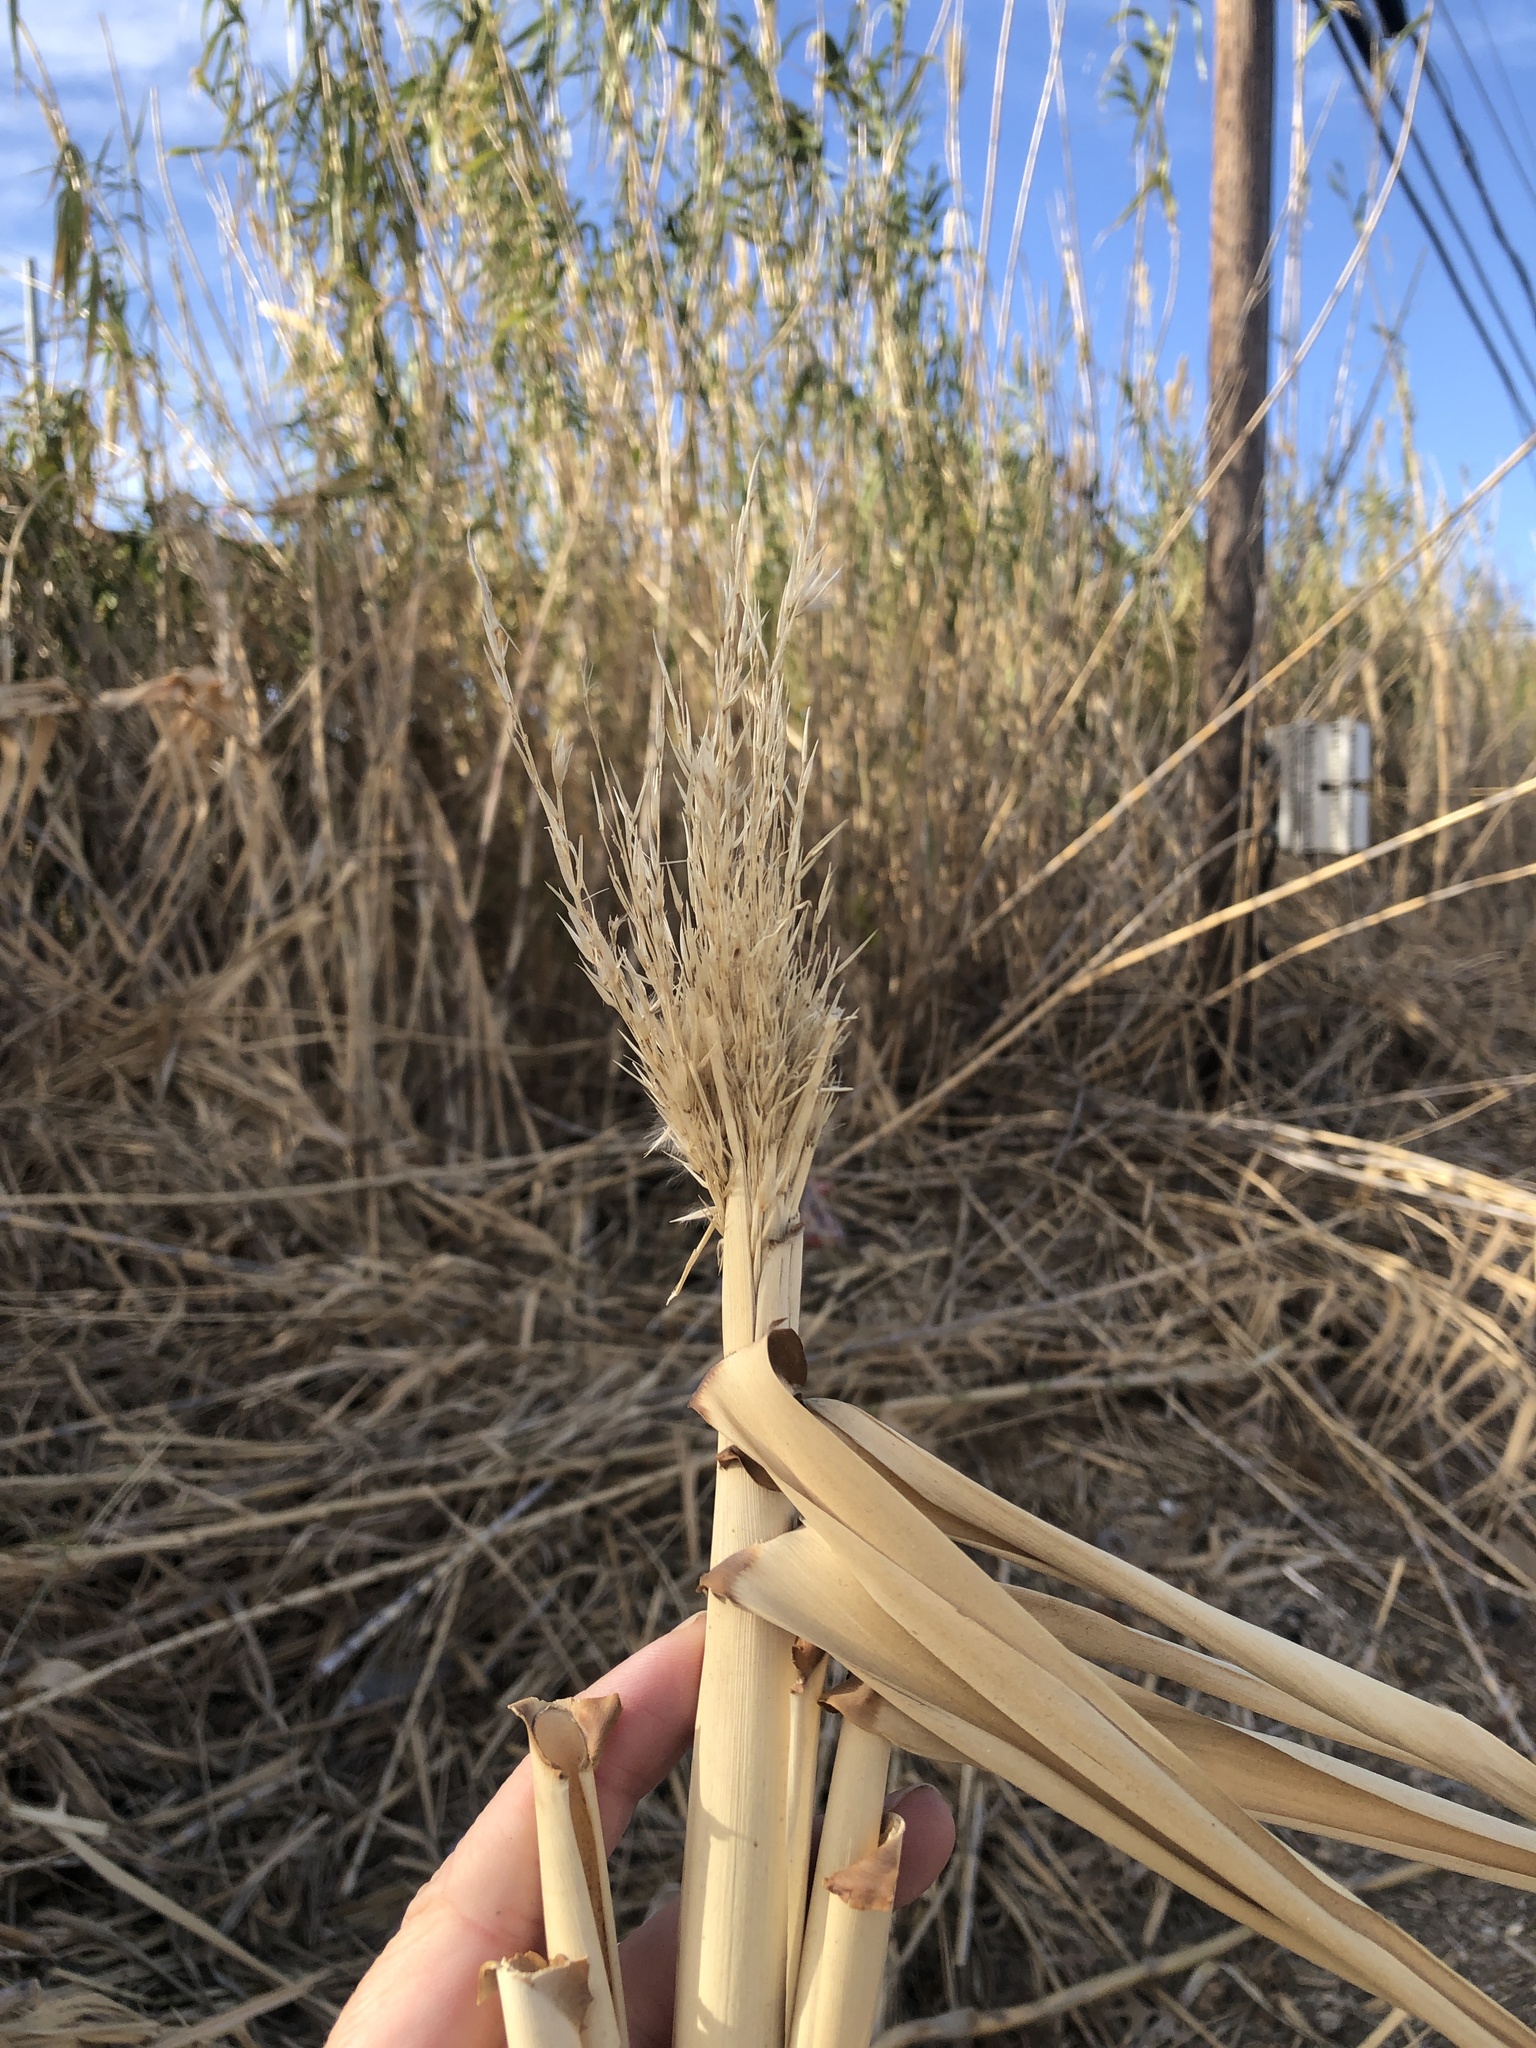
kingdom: Plantae
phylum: Tracheophyta
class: Liliopsida
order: Poales
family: Poaceae
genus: Arundo
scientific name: Arundo donax
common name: Giant reed
